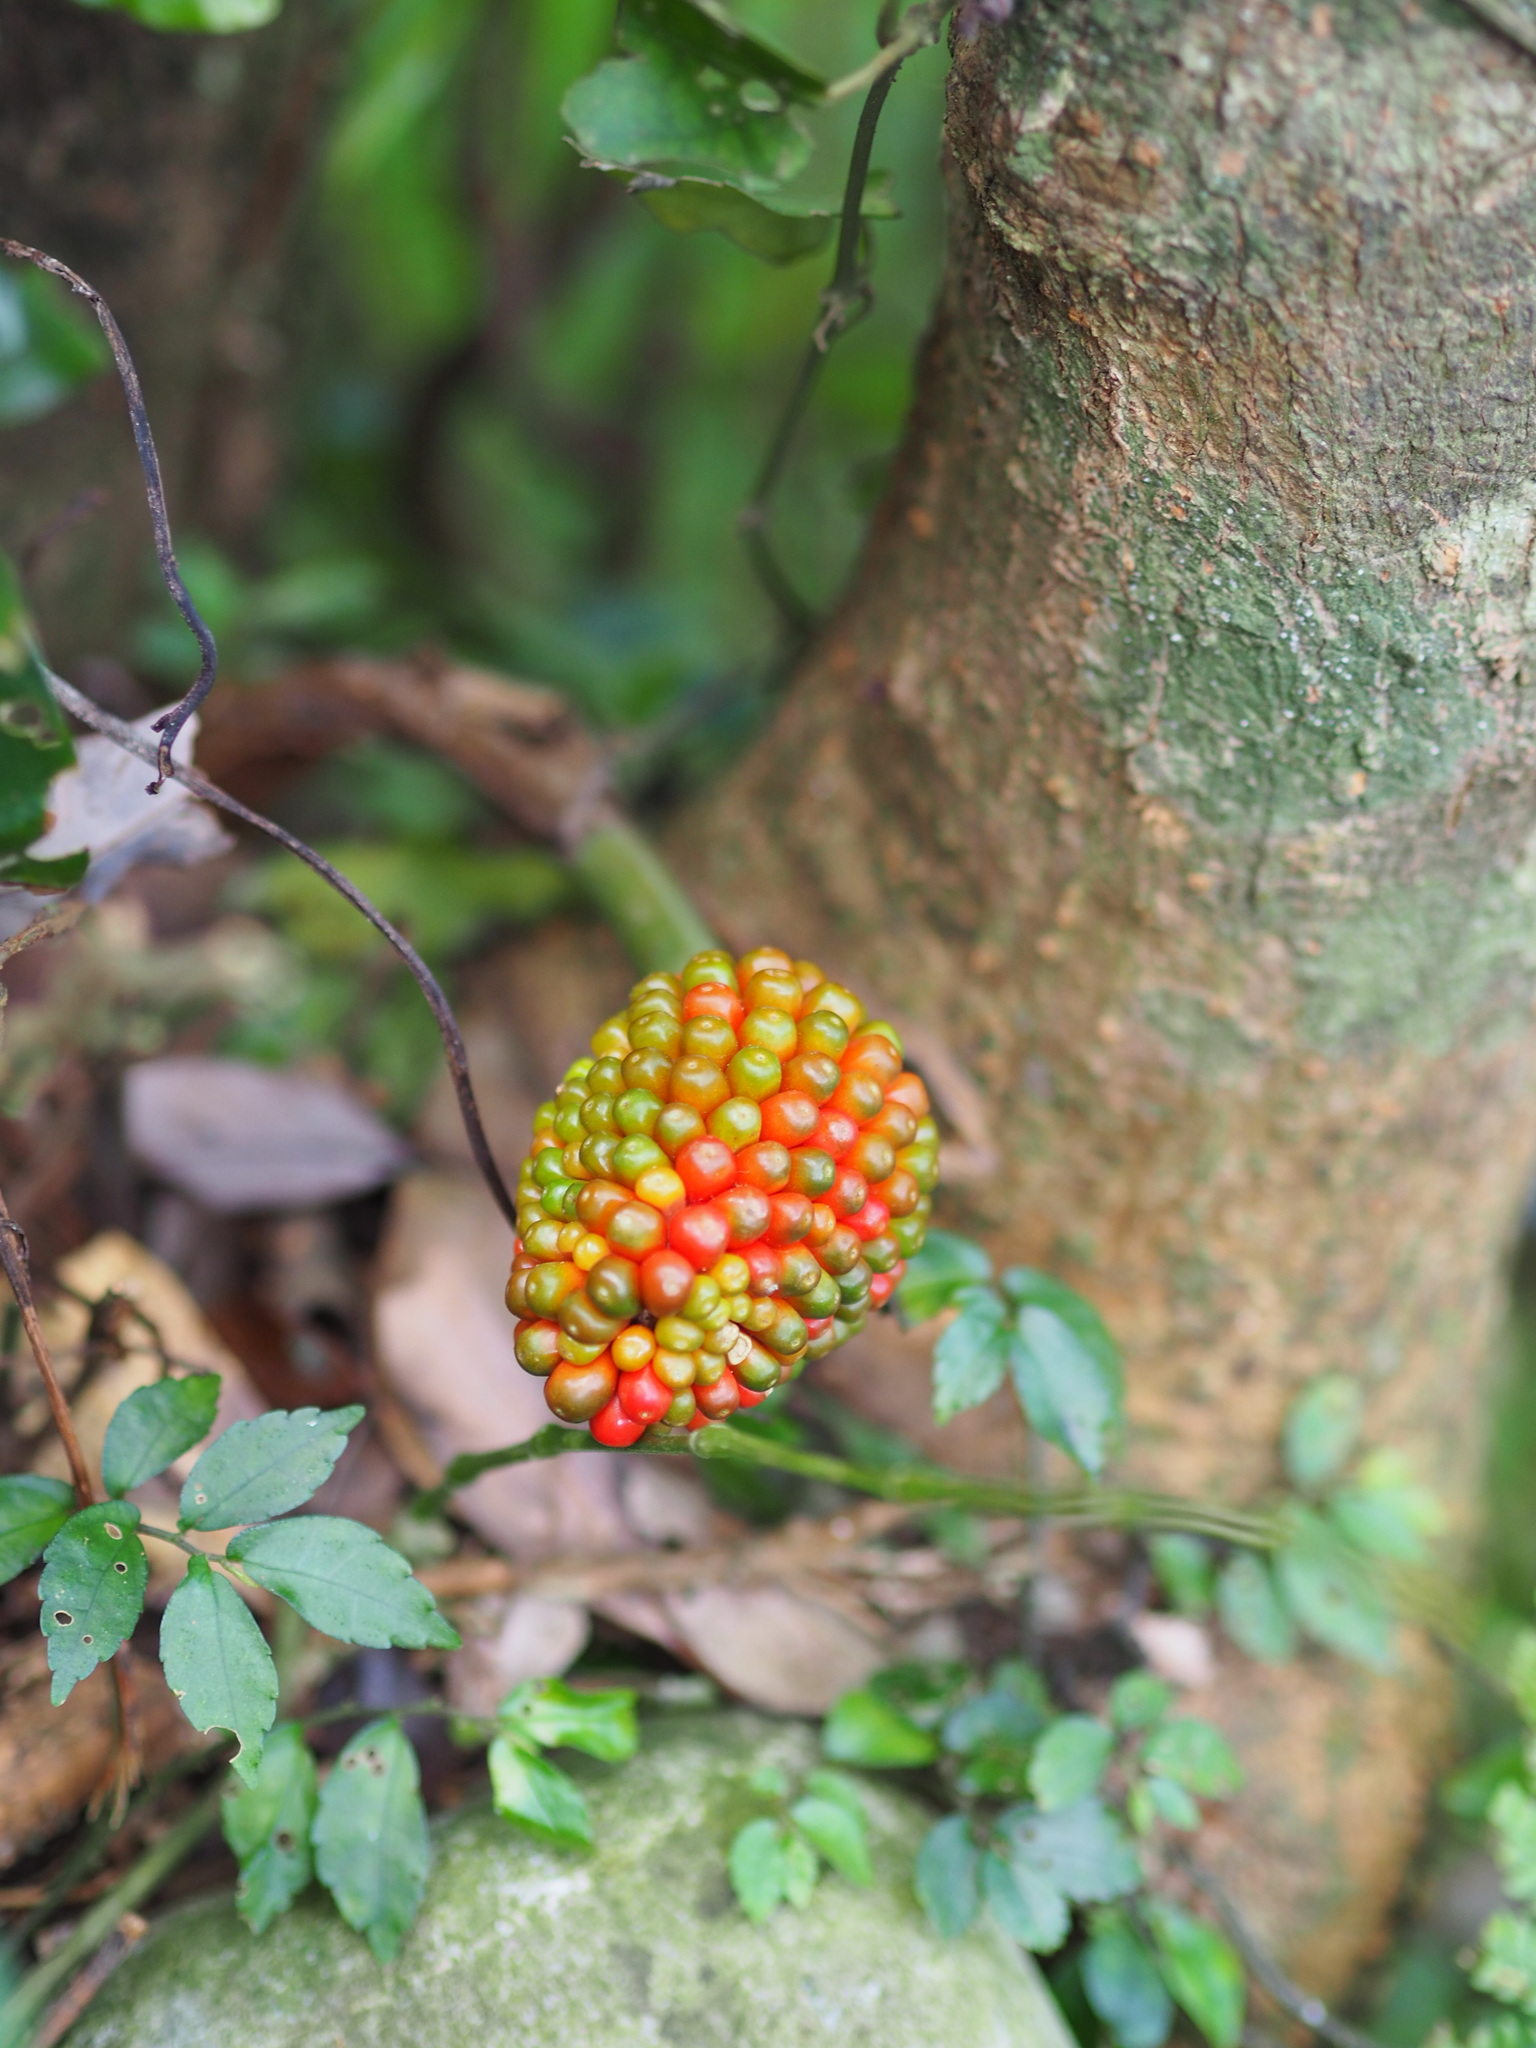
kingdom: Plantae
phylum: Tracheophyta
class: Liliopsida
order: Alismatales
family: Araceae
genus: Arisaema
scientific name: Arisaema ringens
